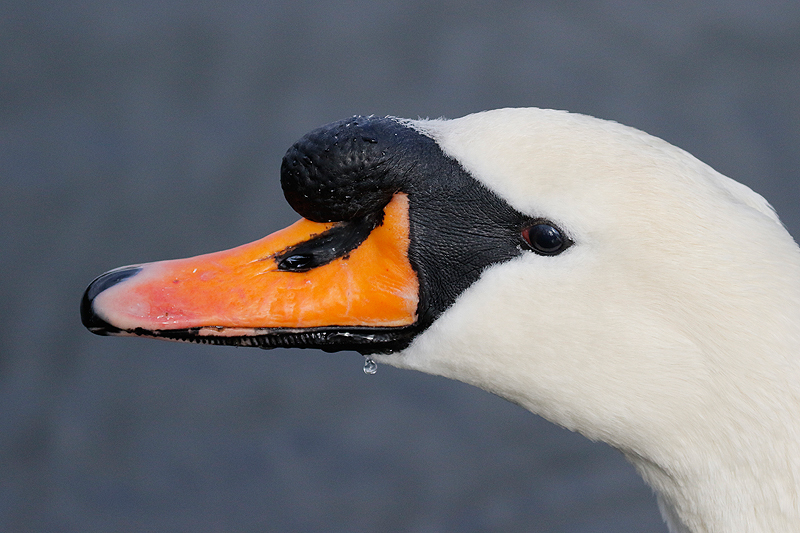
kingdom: Animalia
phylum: Chordata
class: Aves
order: Anseriformes
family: Anatidae
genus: Cygnus
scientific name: Cygnus olor
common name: Mute swan
